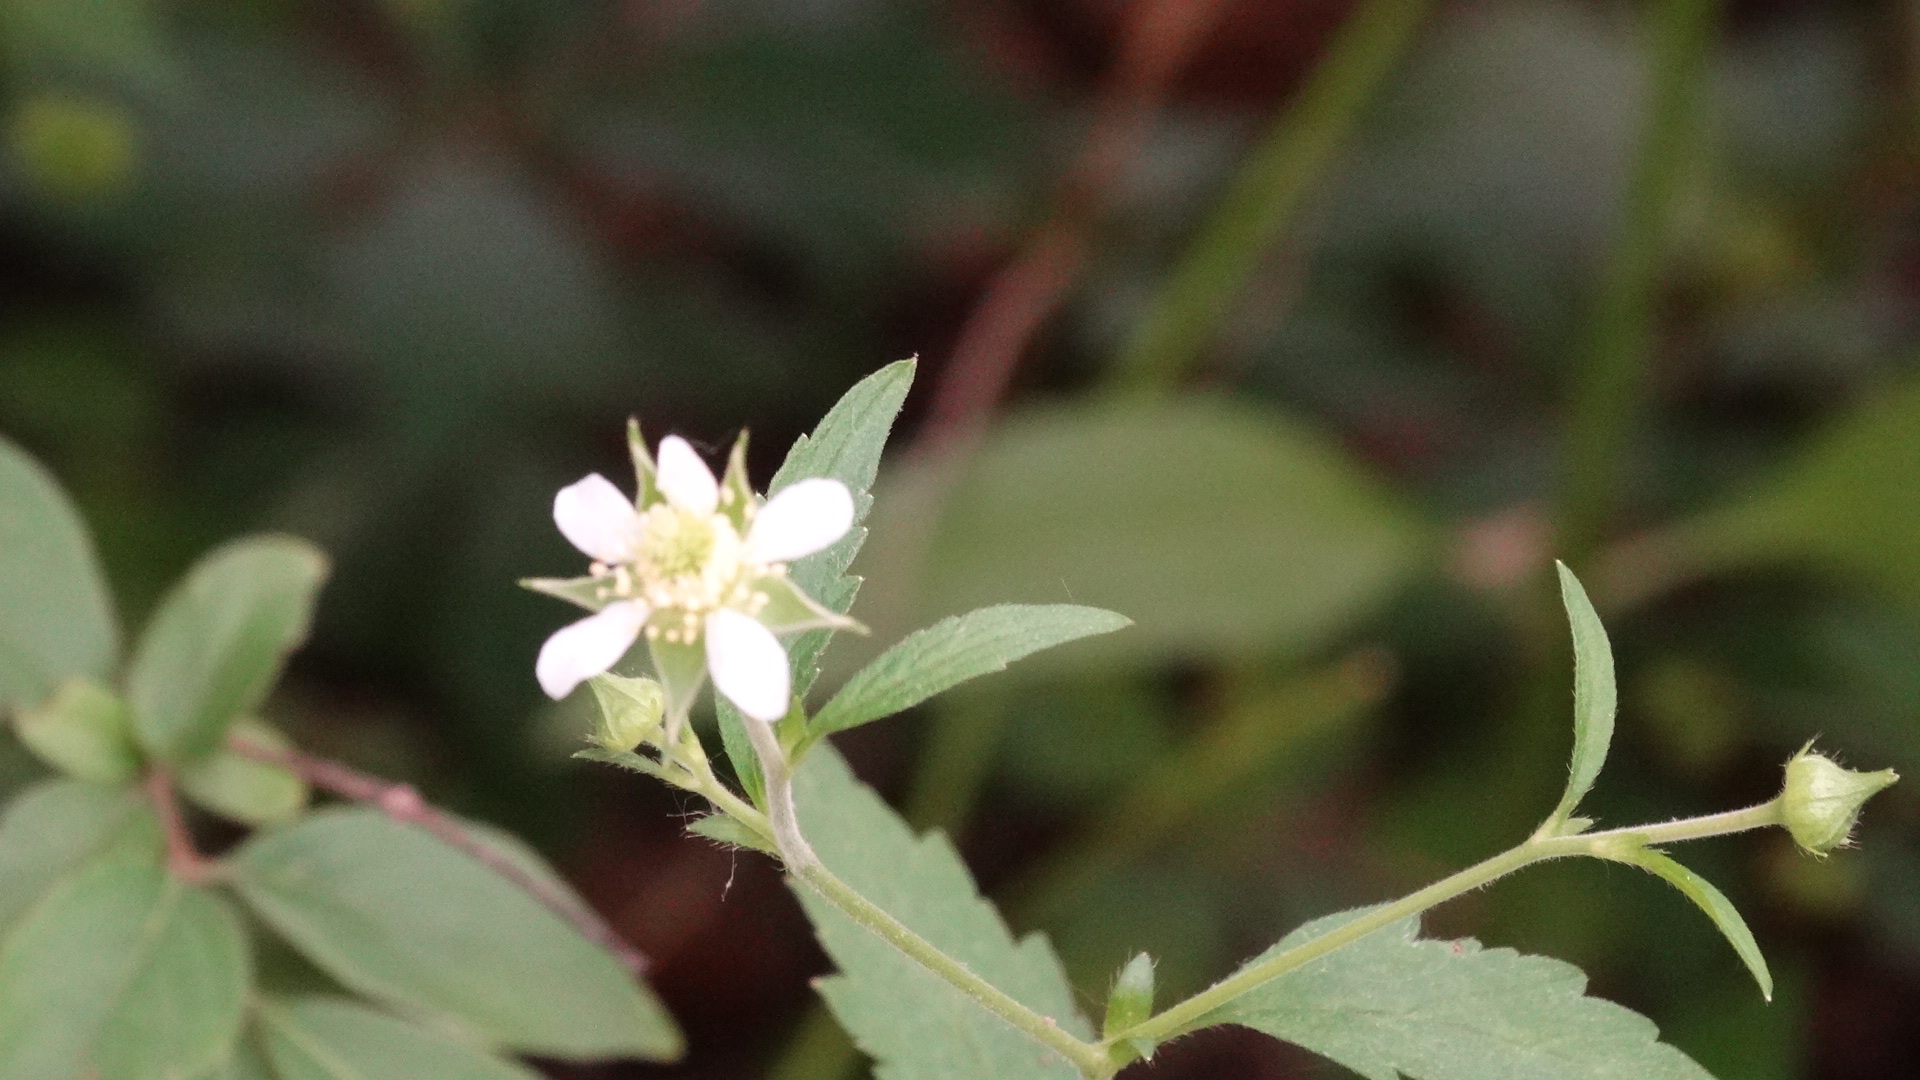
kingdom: Plantae
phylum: Tracheophyta
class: Magnoliopsida
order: Rosales
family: Rosaceae
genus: Geum
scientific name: Geum canadense
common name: White avens
